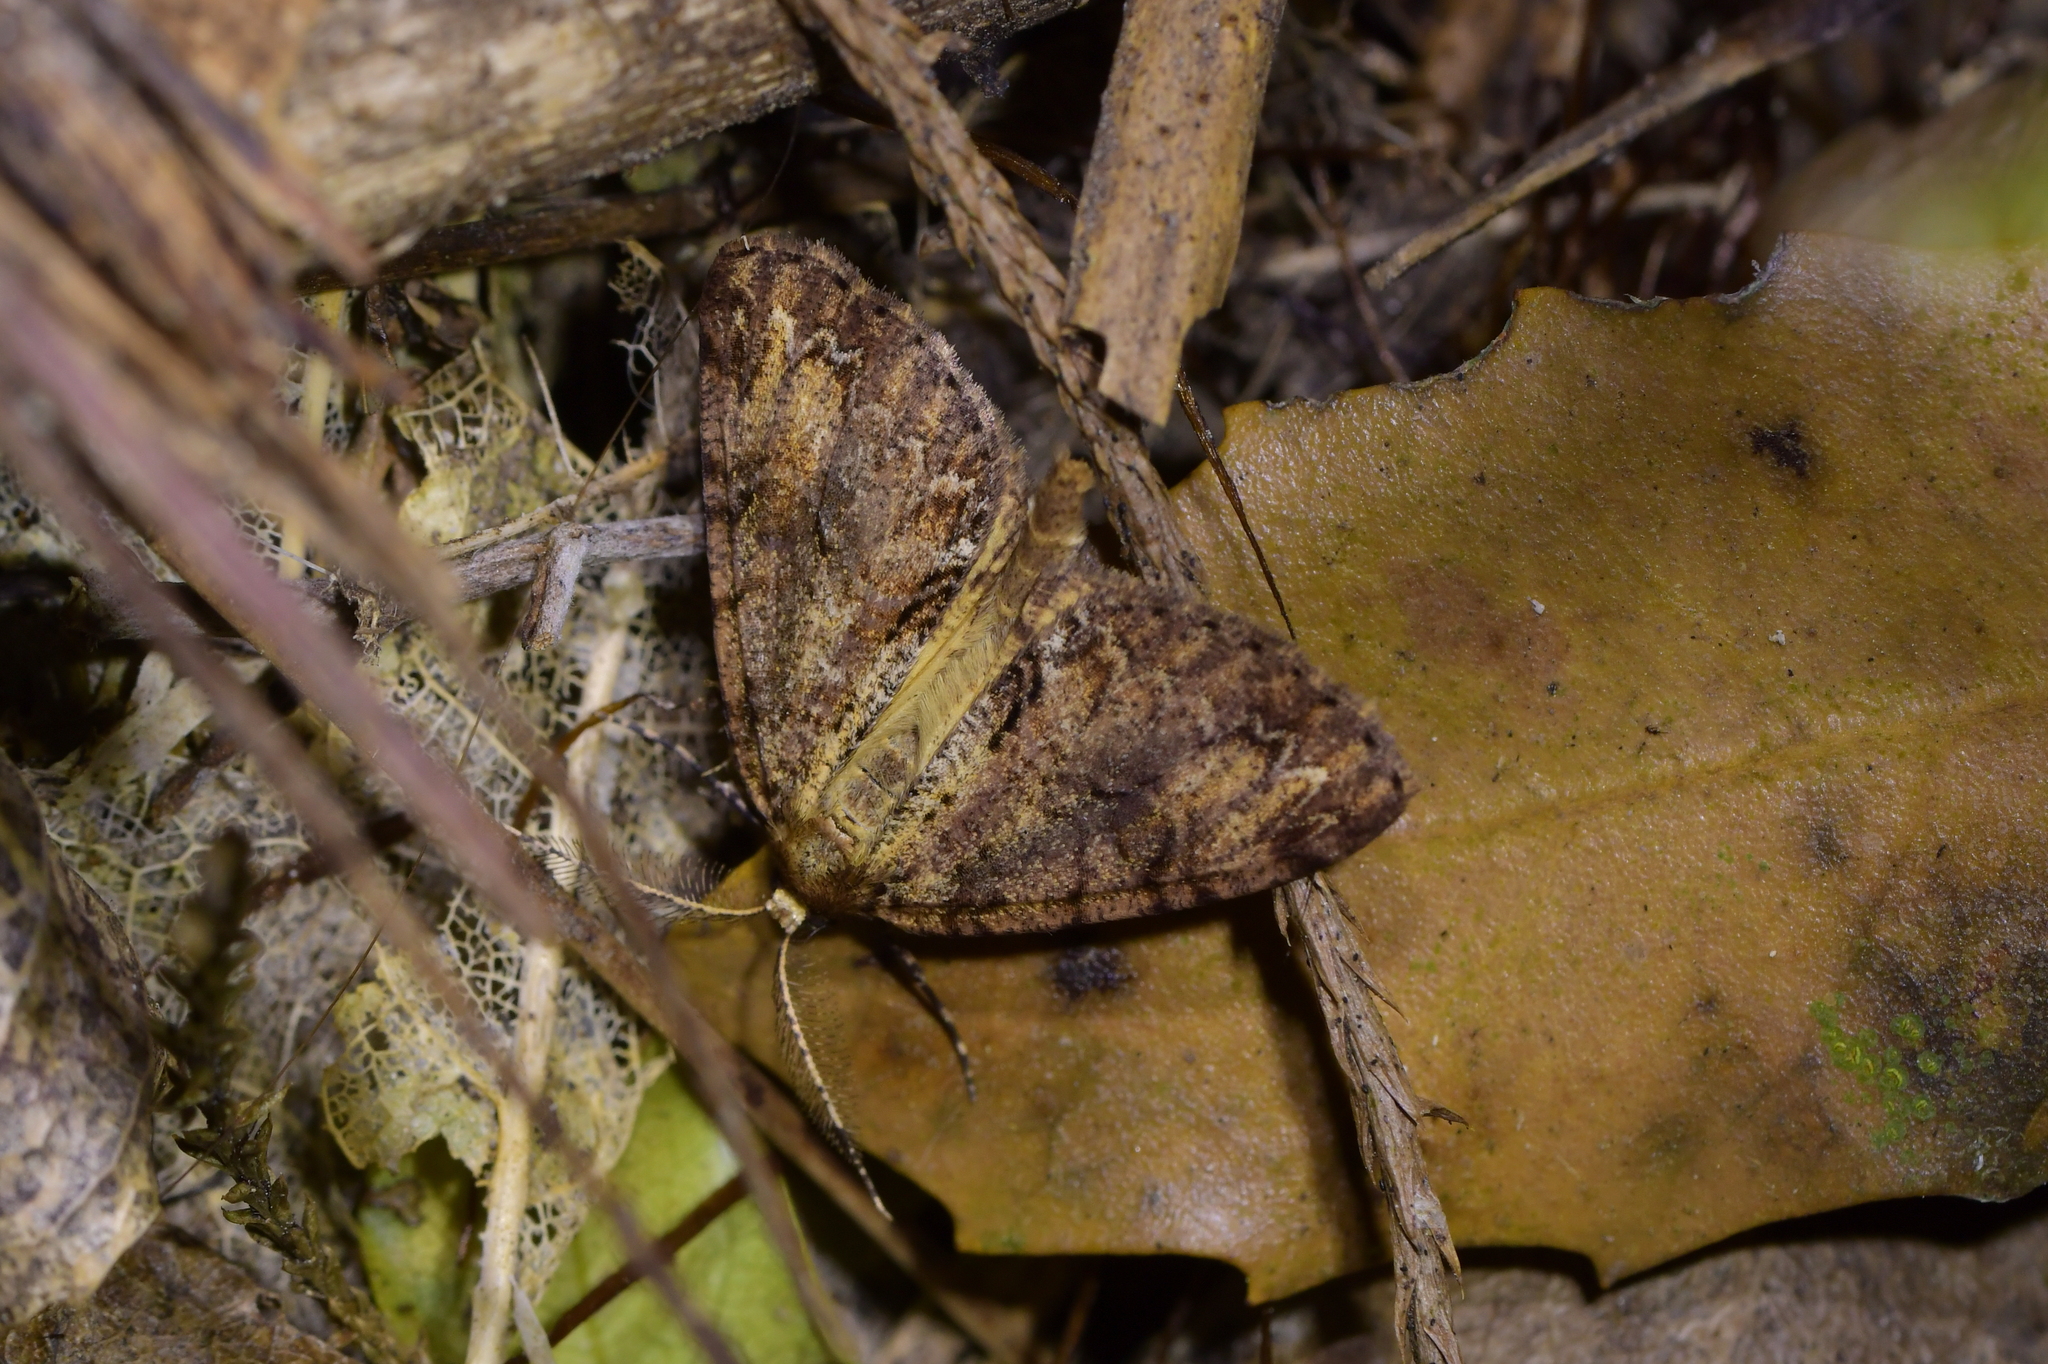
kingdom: Animalia
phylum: Arthropoda
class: Insecta
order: Lepidoptera
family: Geometridae
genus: Pseudocoremia
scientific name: Pseudocoremia suavis
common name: Common forest looper
